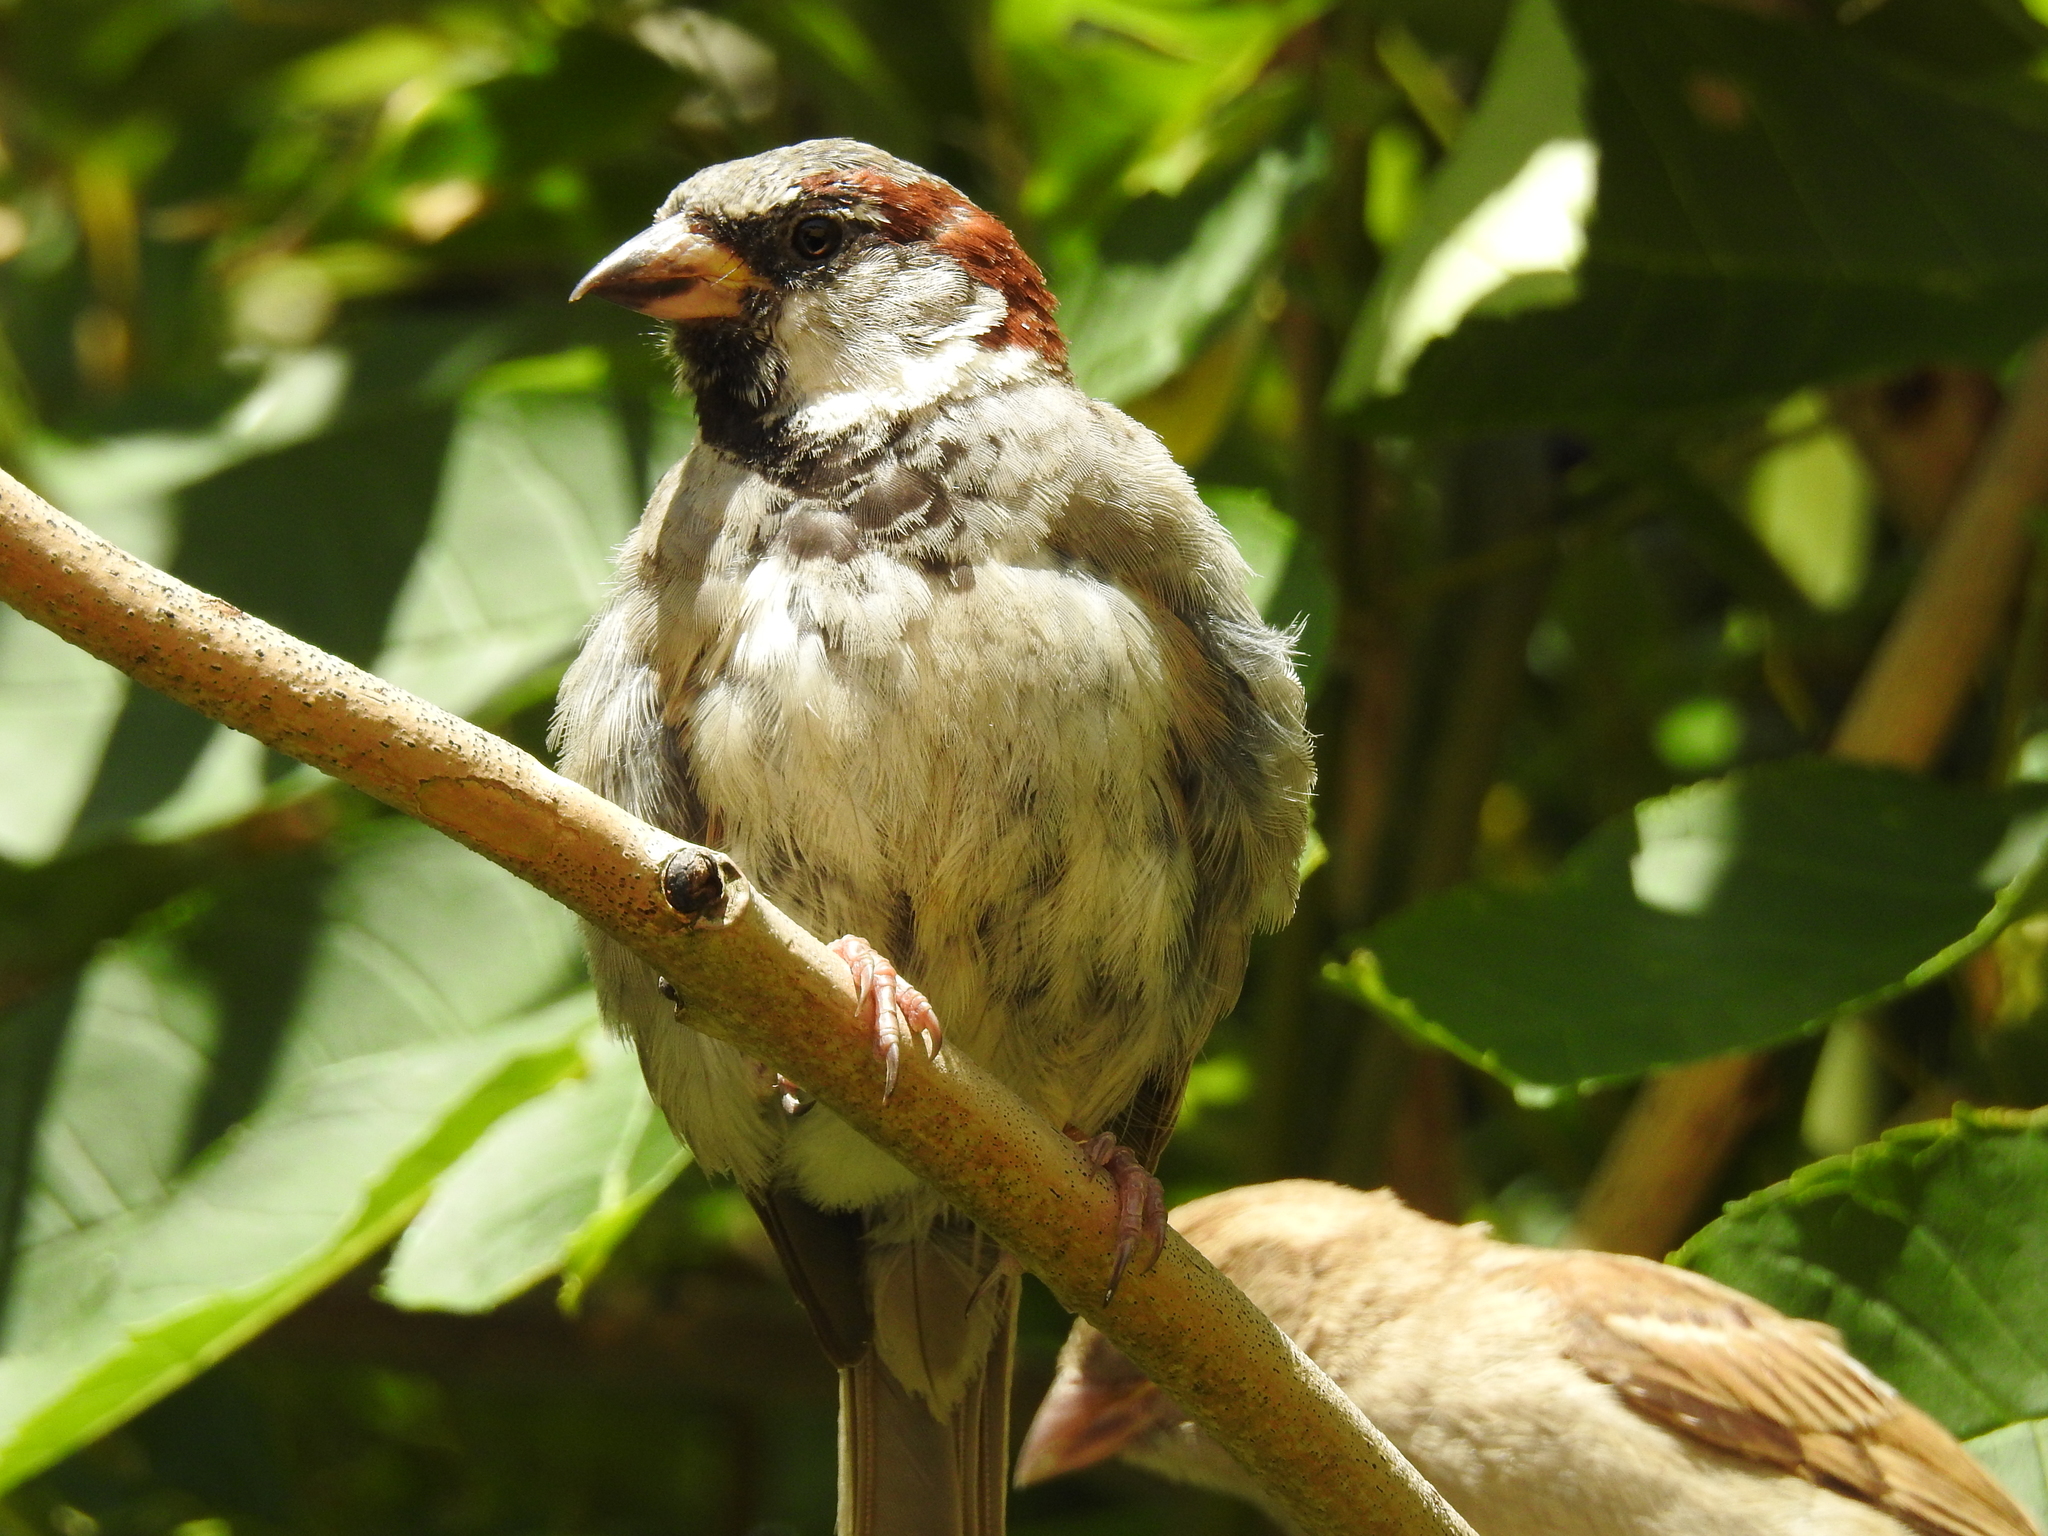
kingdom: Animalia
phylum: Chordata
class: Aves
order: Passeriformes
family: Passeridae
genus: Passer
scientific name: Passer domesticus
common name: House sparrow
